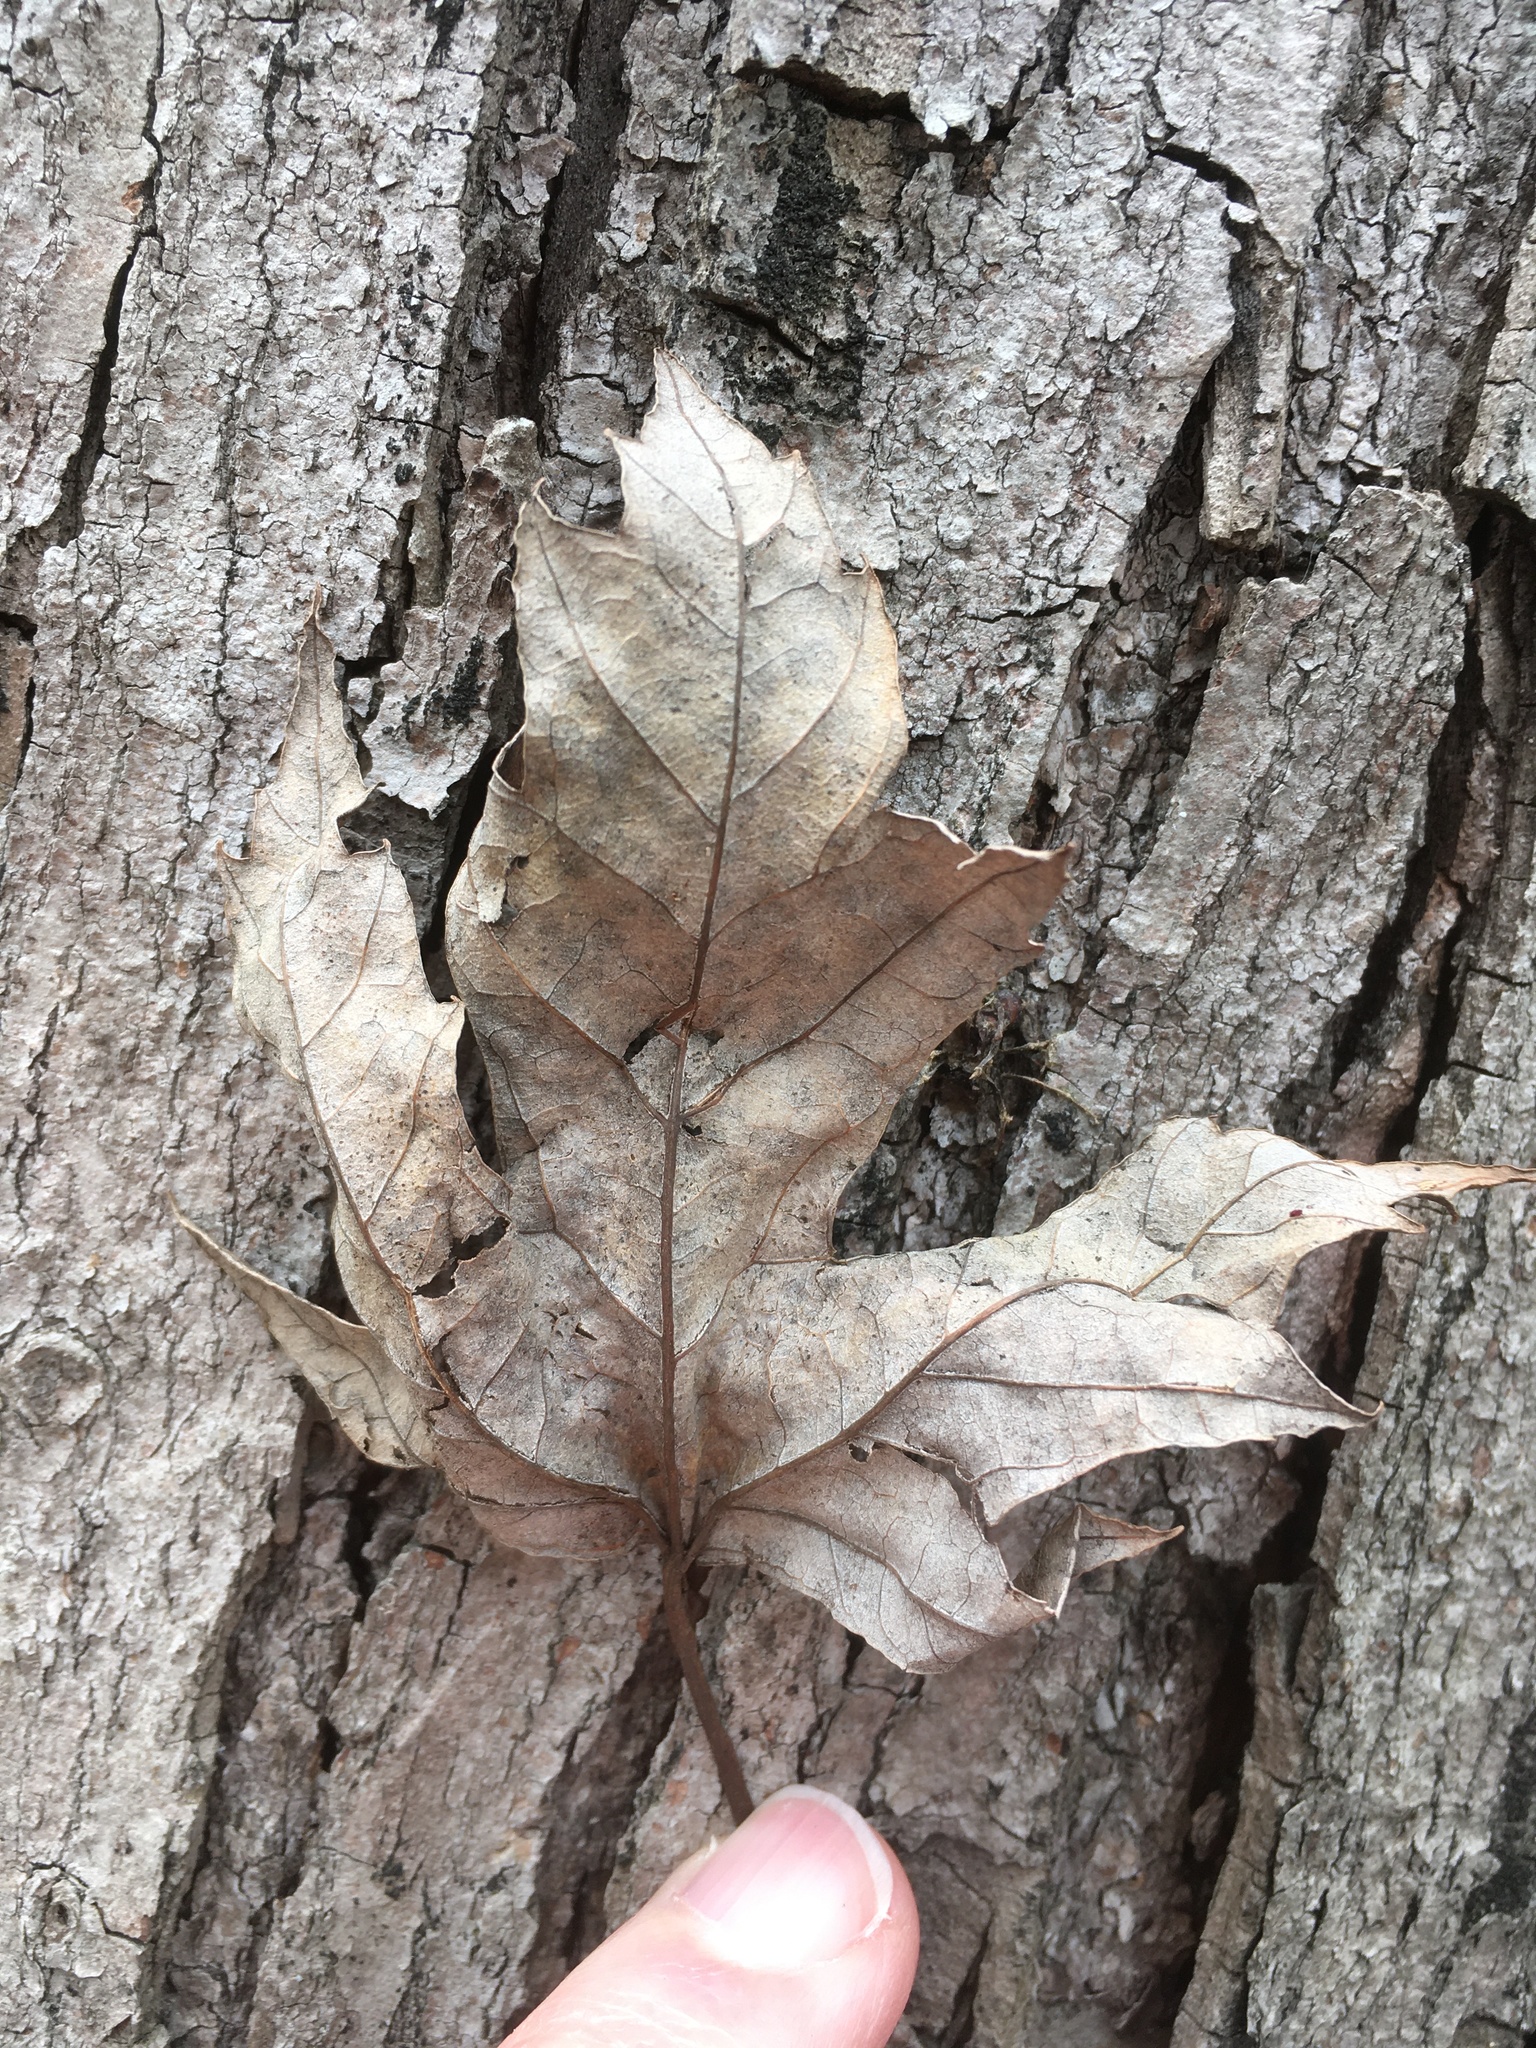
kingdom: Plantae
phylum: Tracheophyta
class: Magnoliopsida
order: Sapindales
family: Sapindaceae
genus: Acer
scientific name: Acer saccharinum
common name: Silver maple
